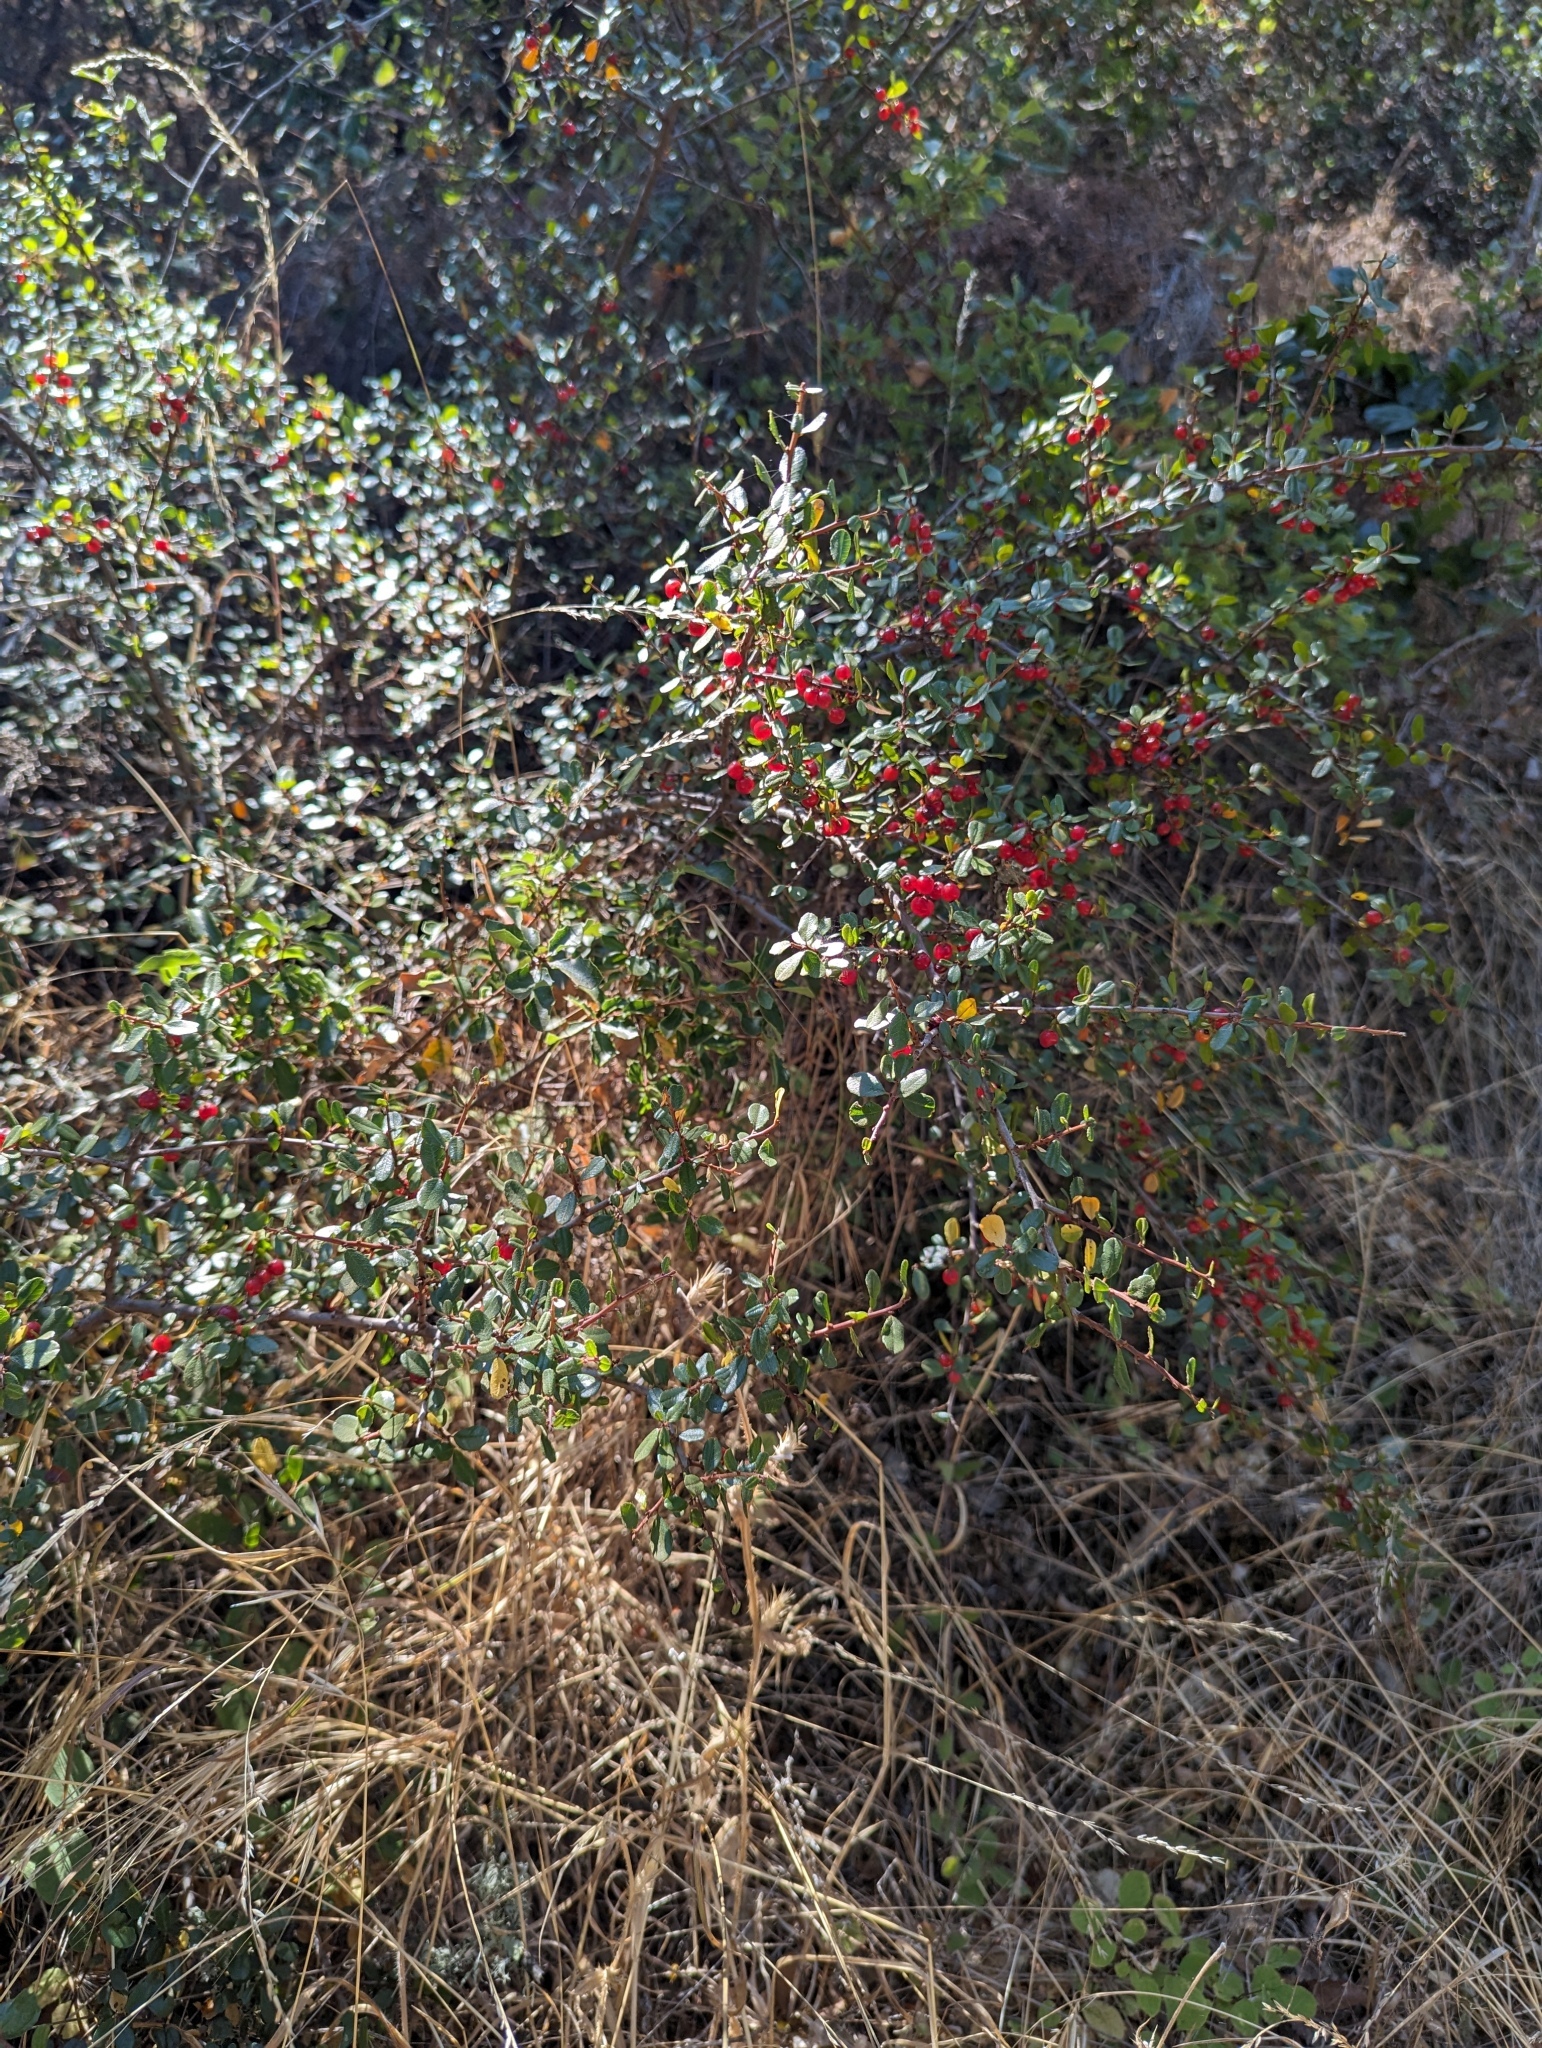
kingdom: Plantae
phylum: Tracheophyta
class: Magnoliopsida
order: Rosales
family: Rhamnaceae
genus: Endotropis
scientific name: Endotropis crocea
